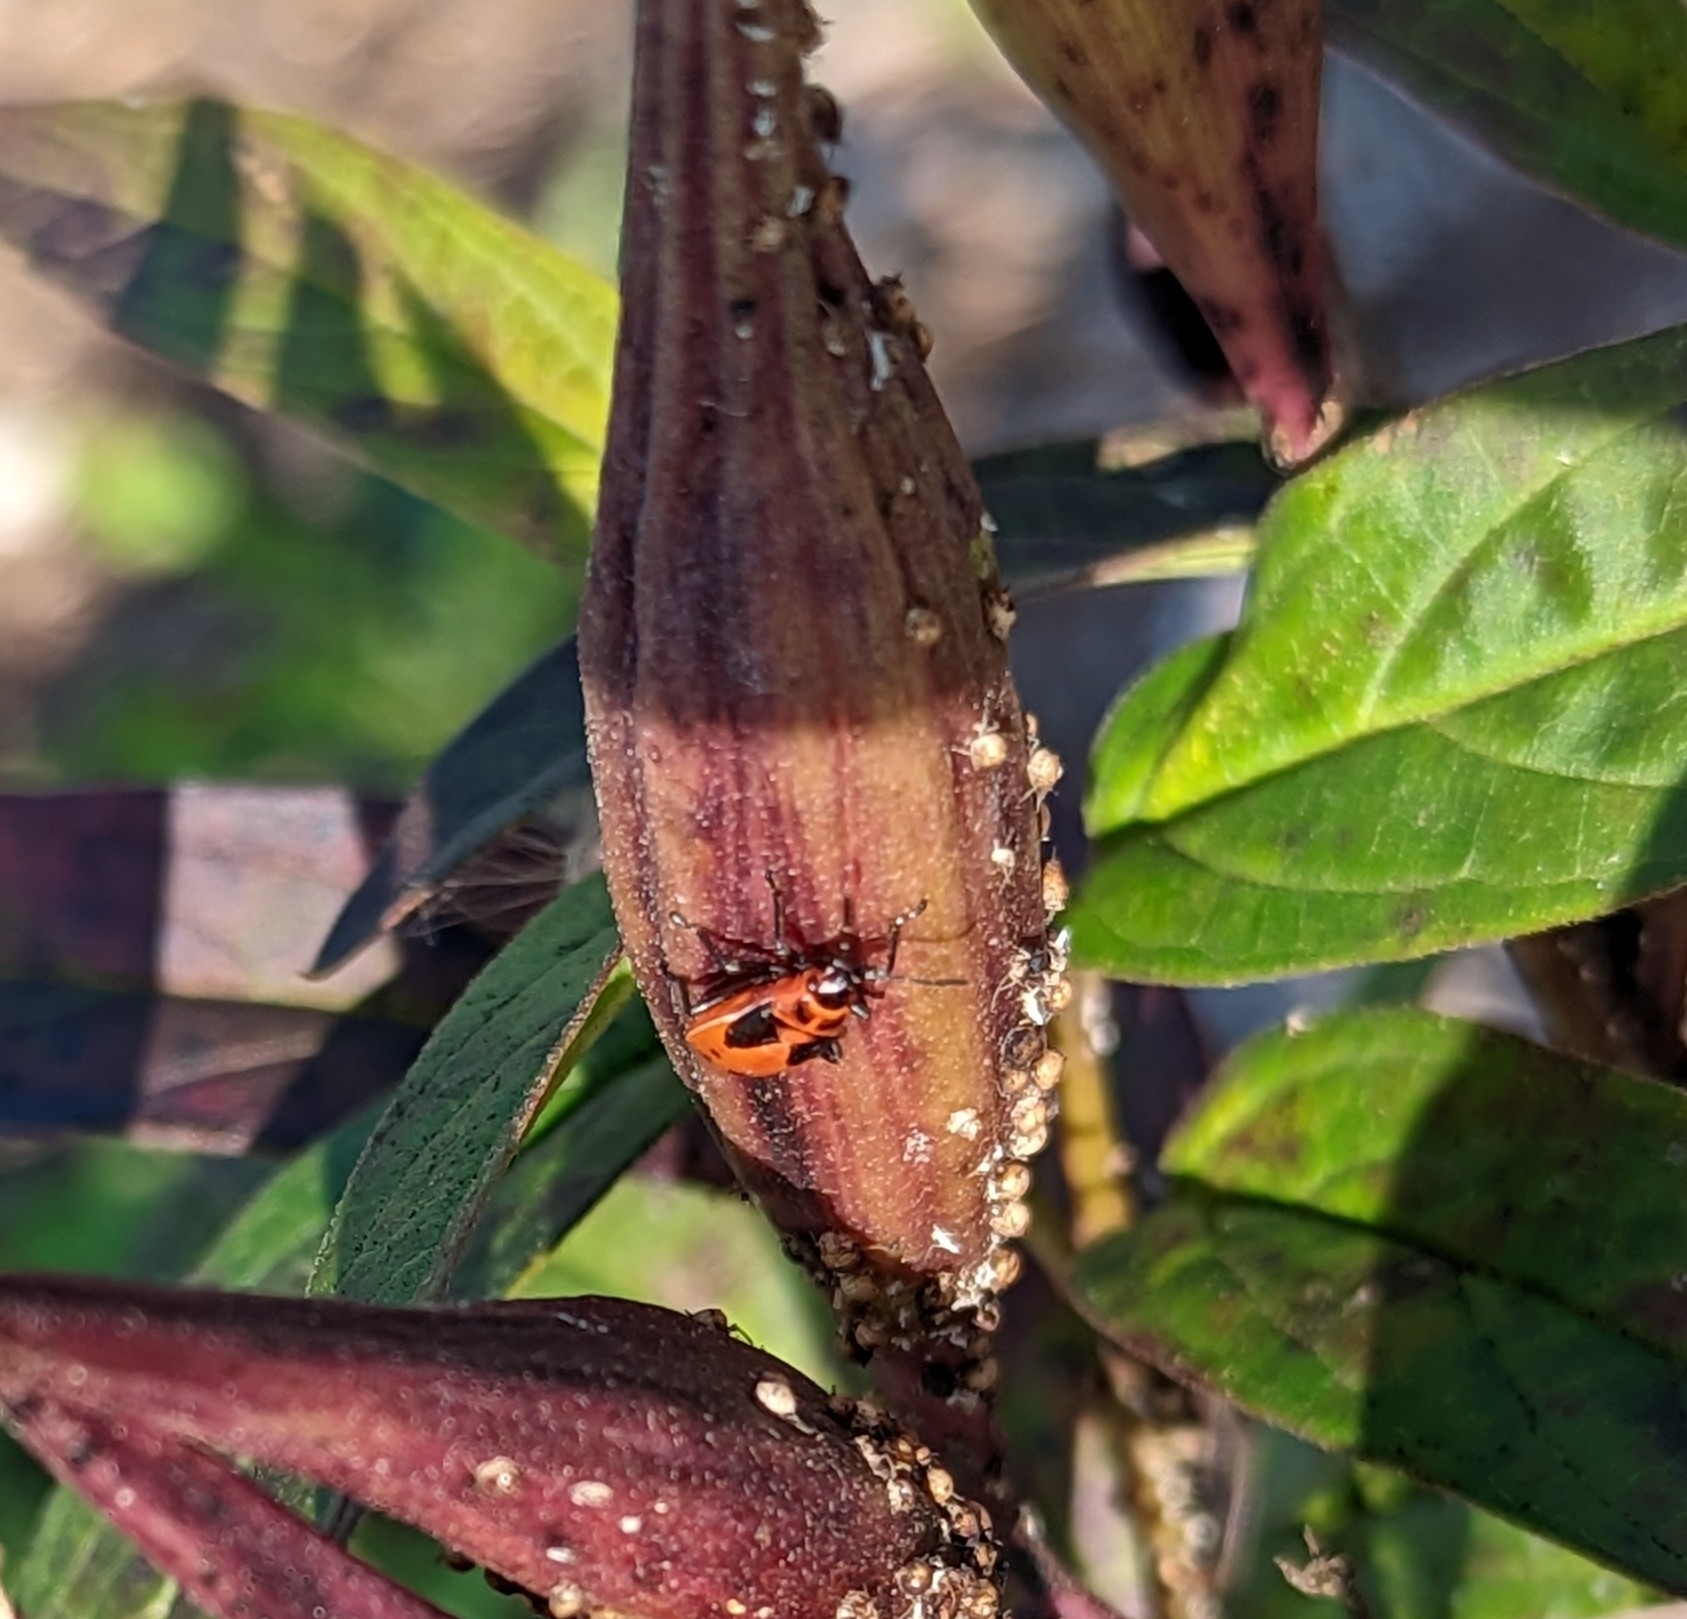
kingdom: Animalia
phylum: Arthropoda
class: Insecta
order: Hemiptera
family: Lygaeidae
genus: Lygaeus
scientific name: Lygaeus kalmii
